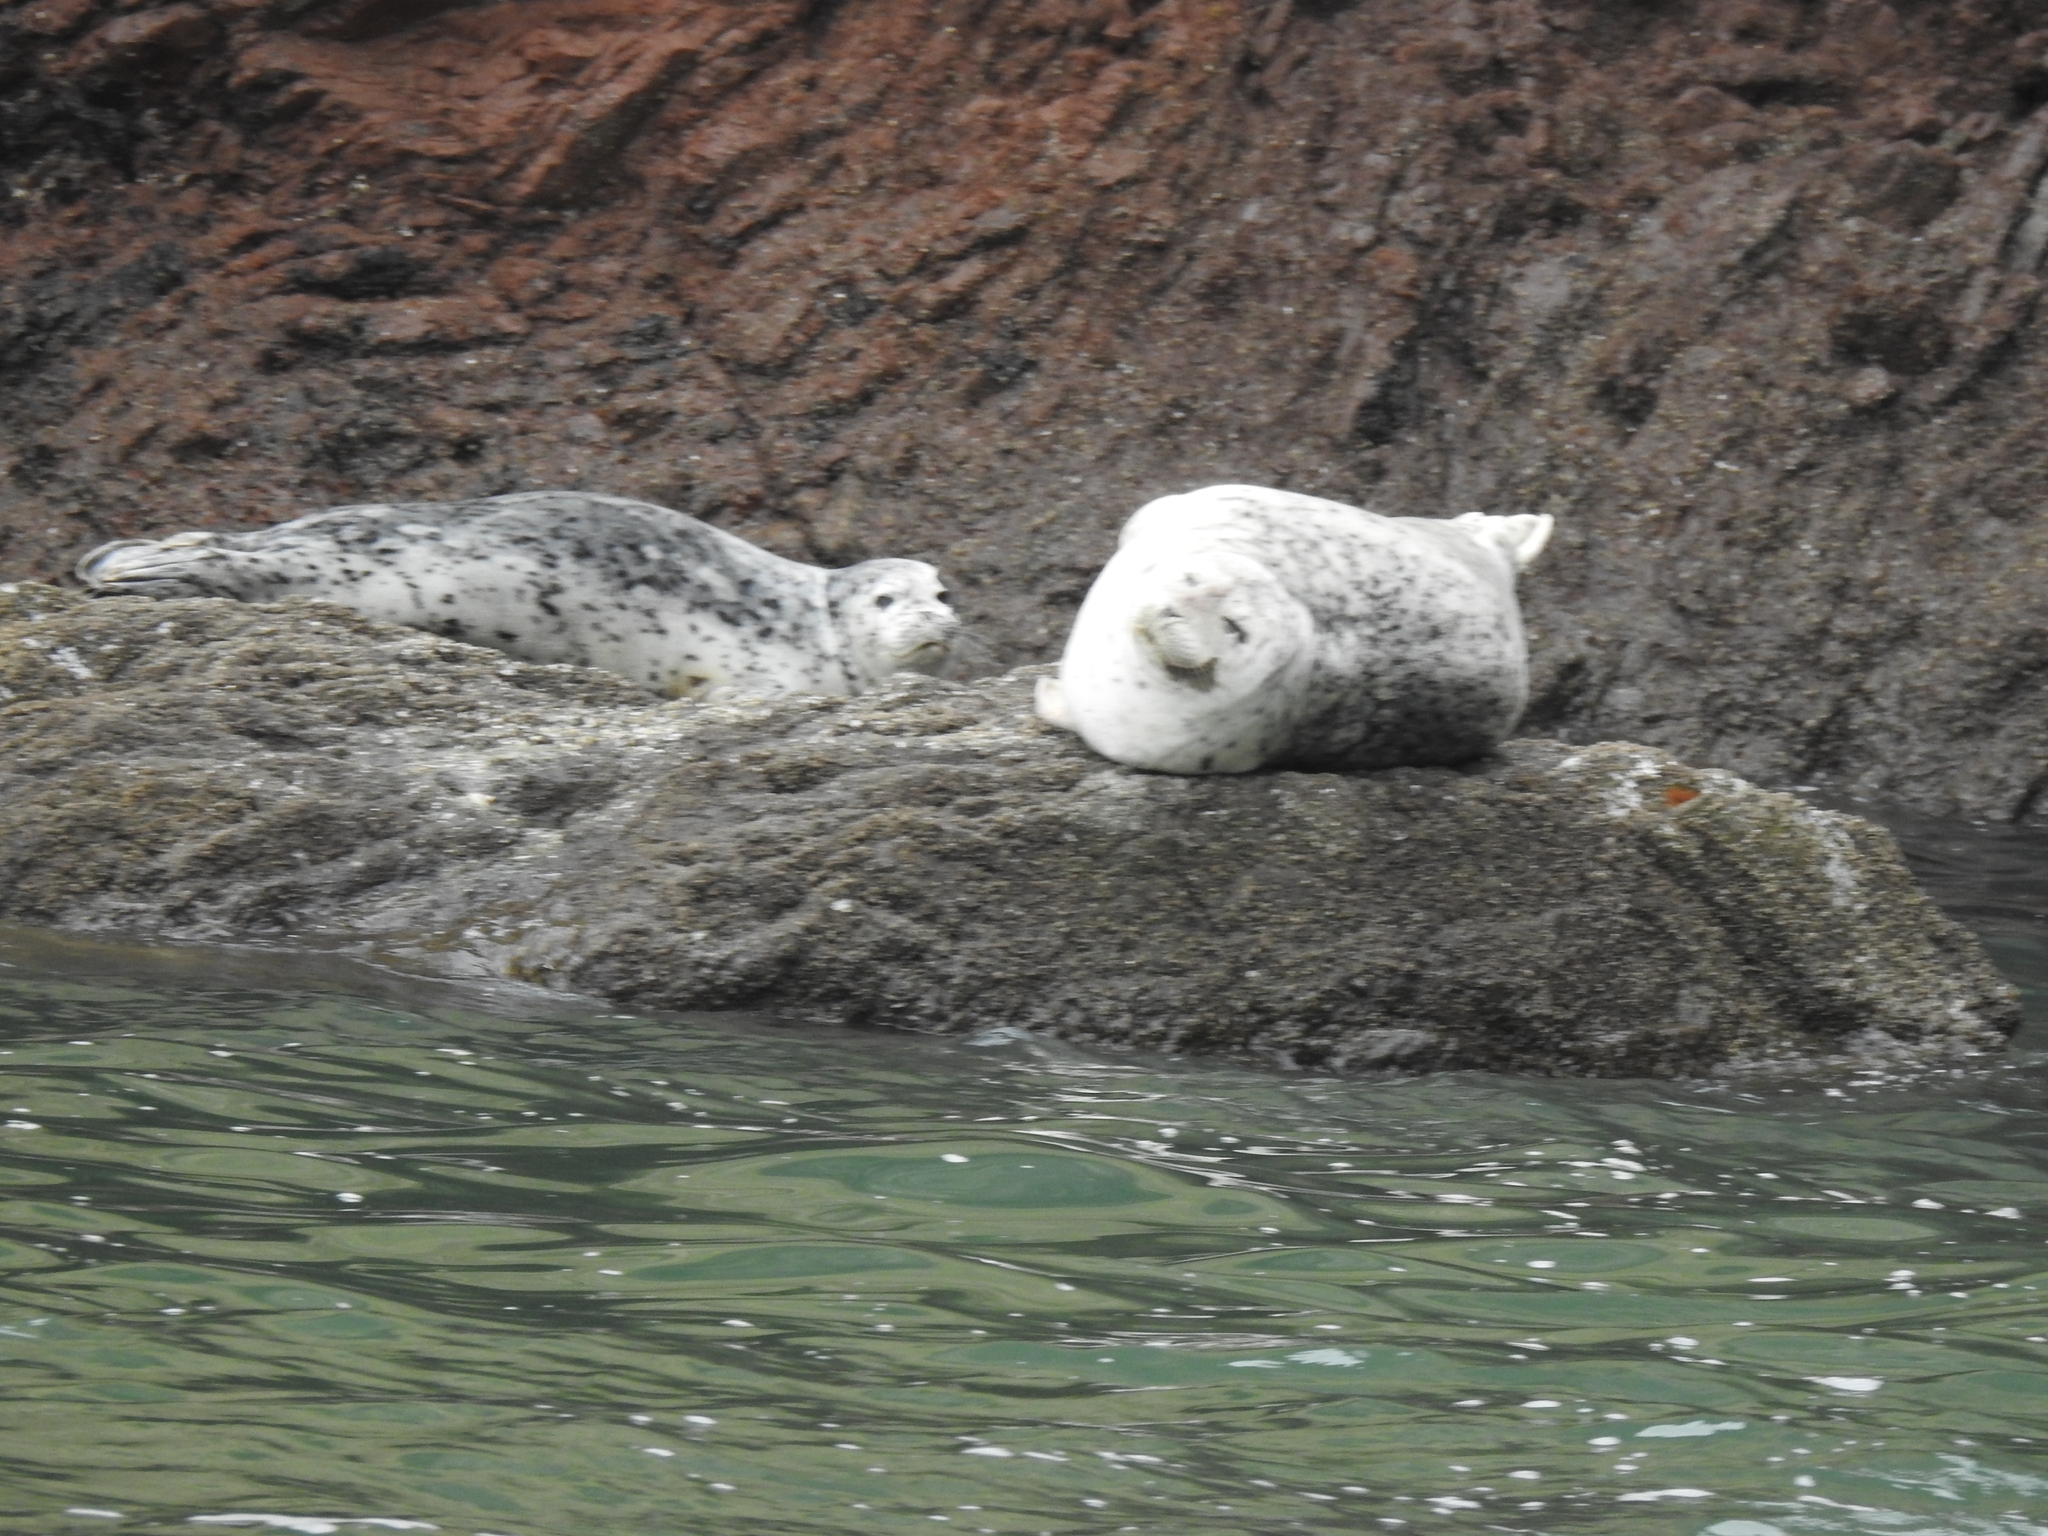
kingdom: Animalia
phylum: Chordata
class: Mammalia
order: Carnivora
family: Phocidae
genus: Phoca
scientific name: Phoca vitulina
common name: Harbor seal
